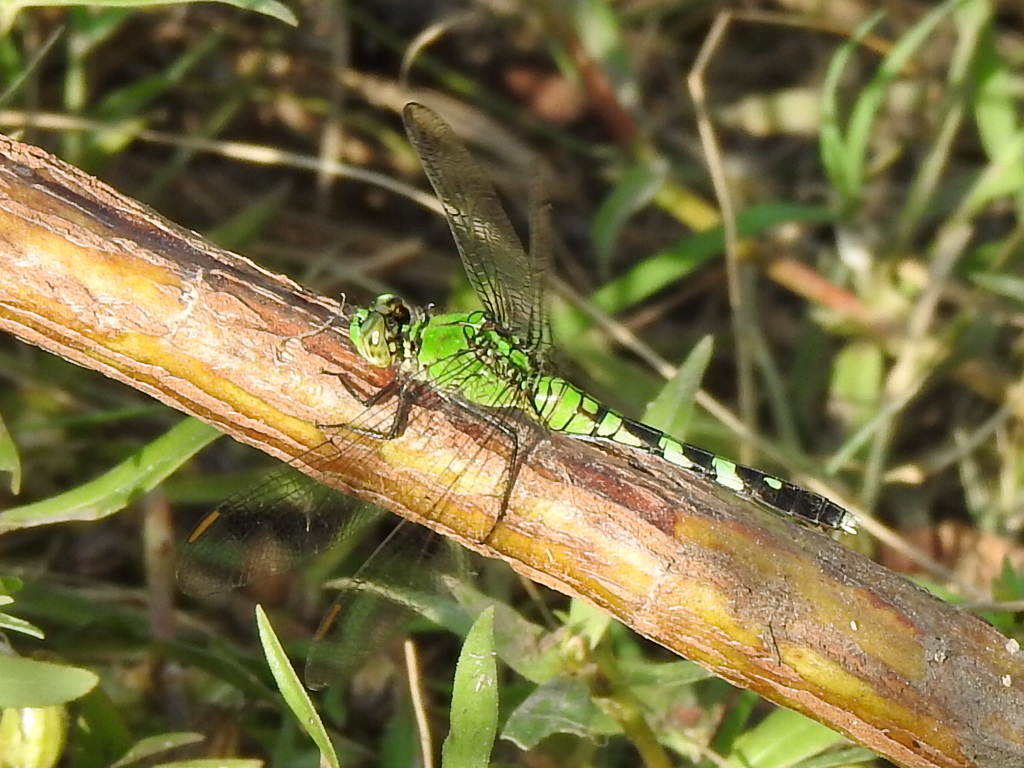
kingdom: Animalia
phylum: Arthropoda
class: Insecta
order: Odonata
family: Libellulidae
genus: Erythemis
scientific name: Erythemis simplicicollis
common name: Eastern pondhawk
